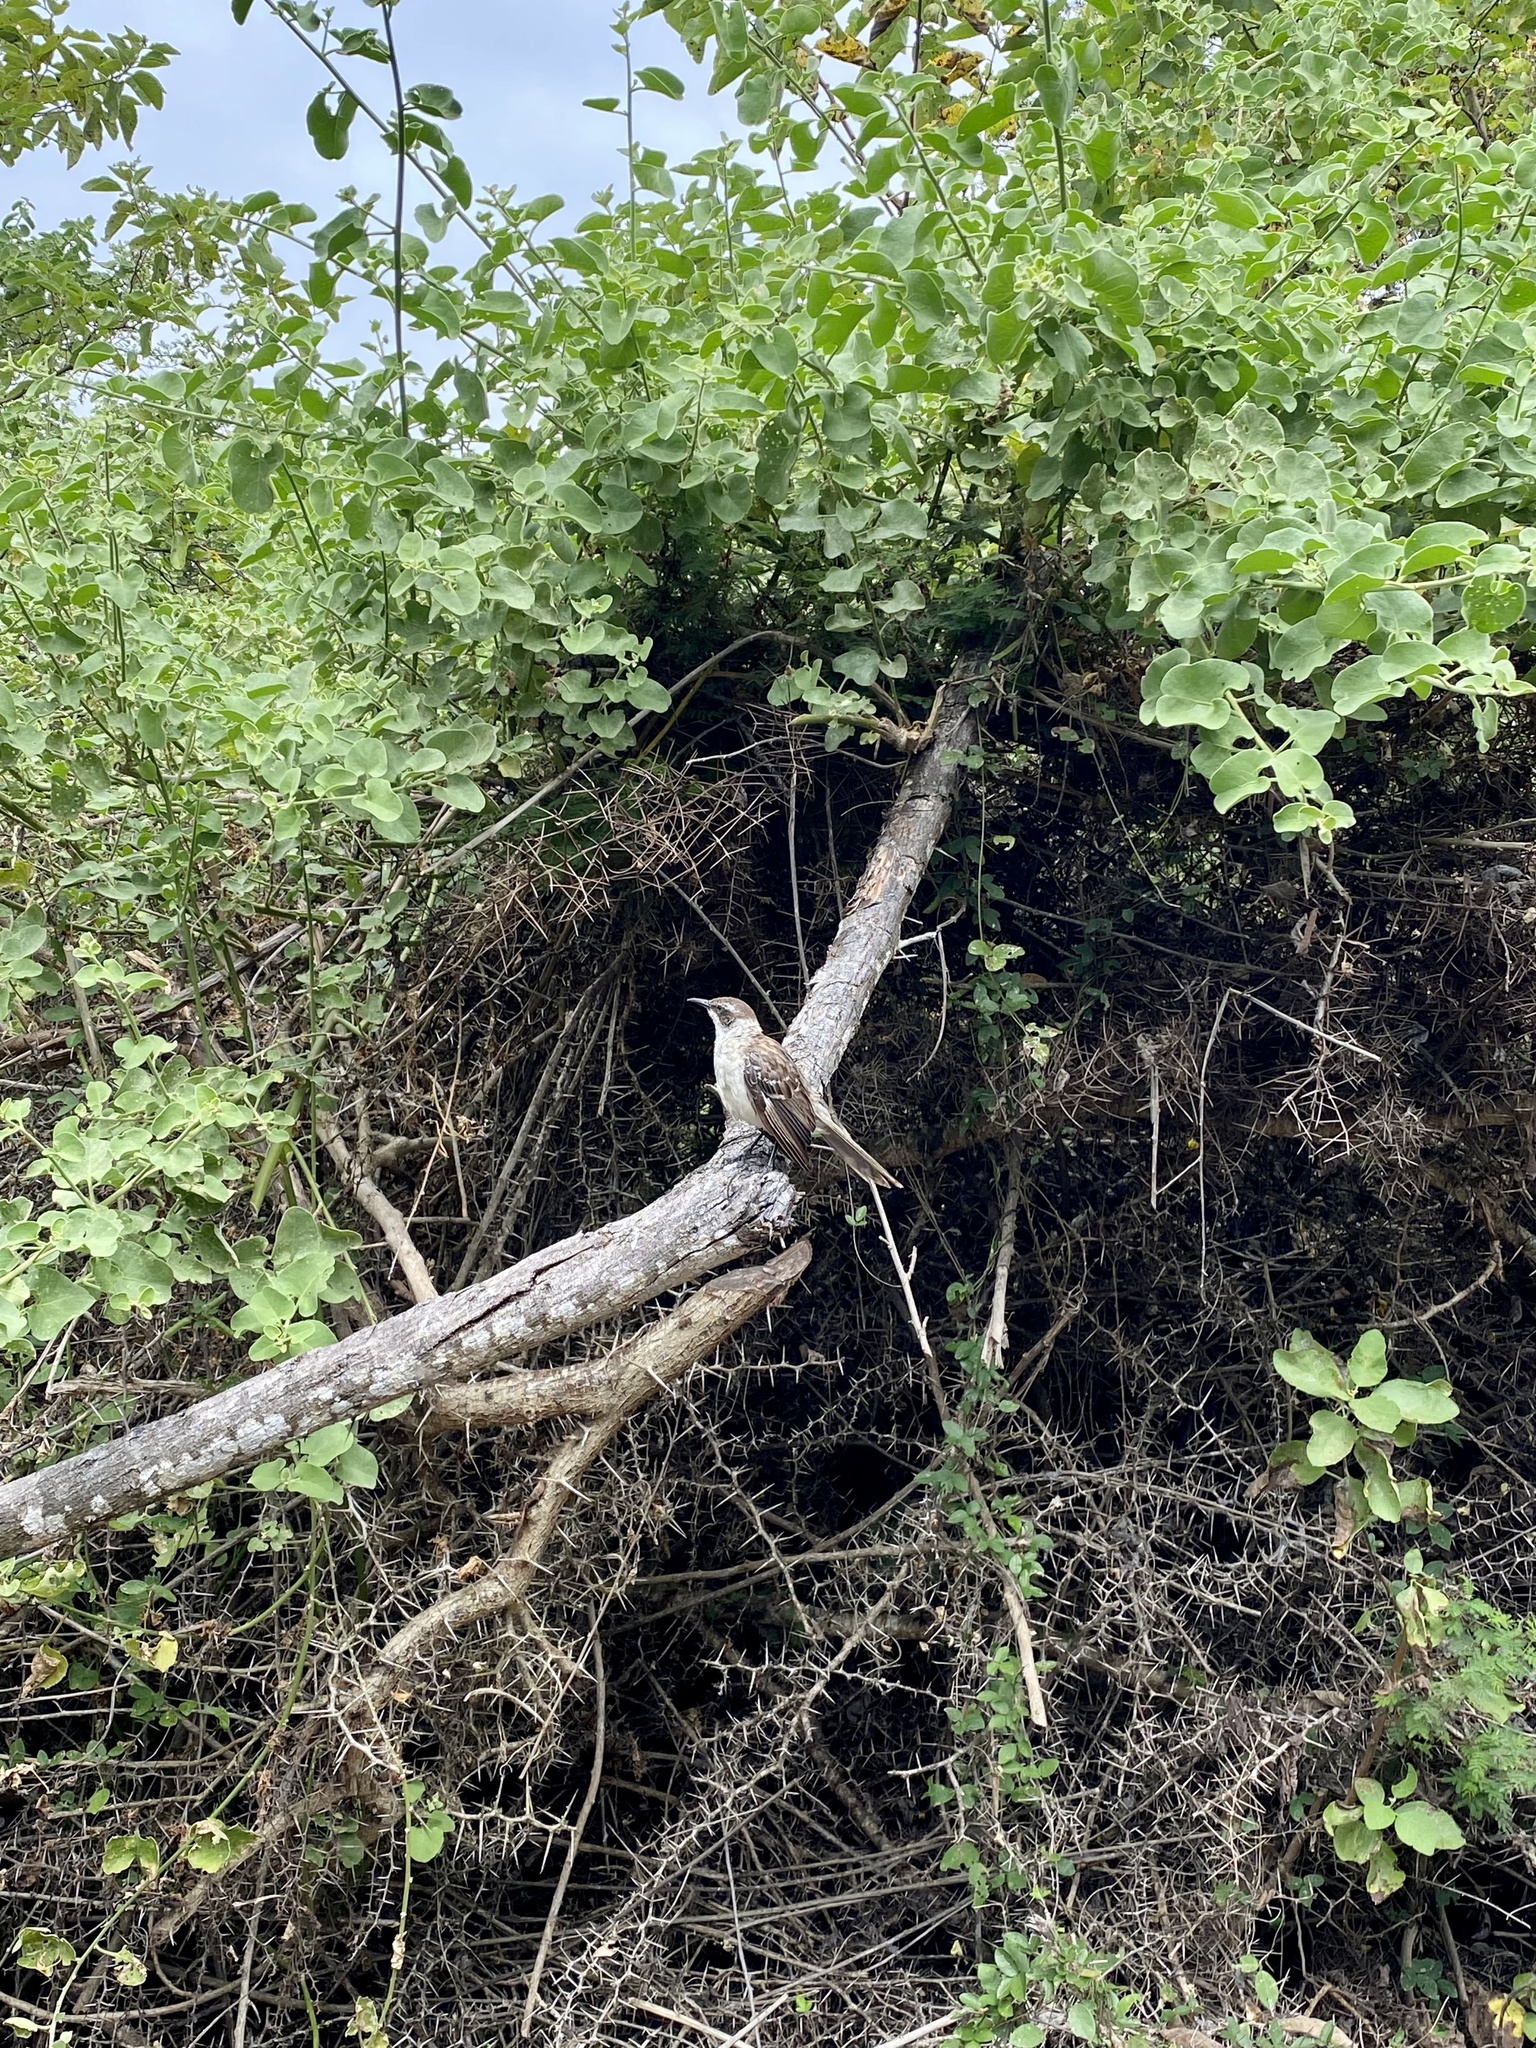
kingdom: Animalia
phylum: Chordata
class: Aves
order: Passeriformes
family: Mimidae
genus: Mimus
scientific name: Mimus parvulus
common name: Galapagos mockingbird
